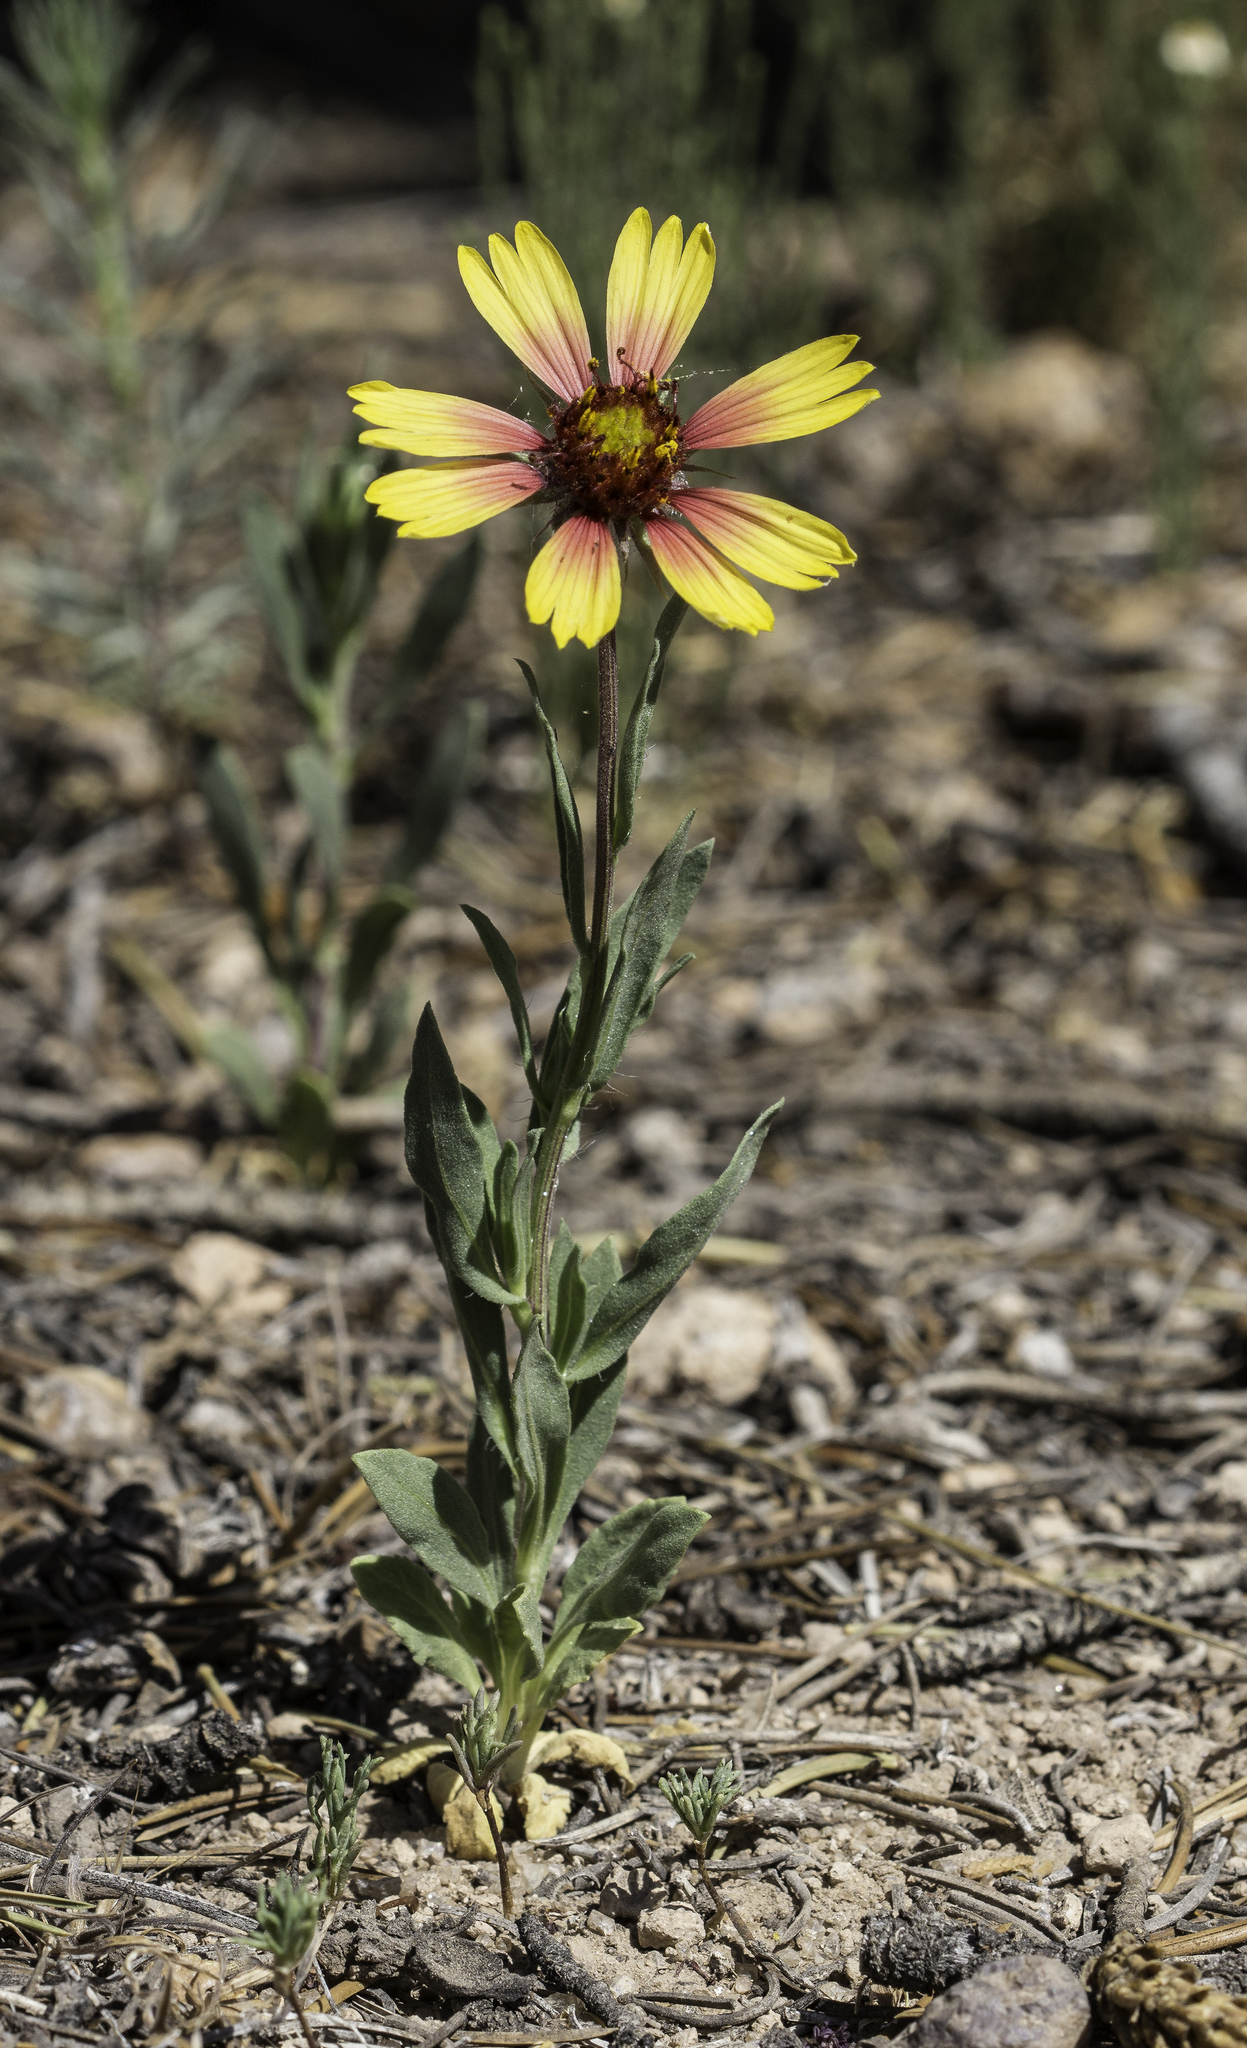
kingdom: Plantae
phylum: Tracheophyta
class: Magnoliopsida
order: Asterales
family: Asteraceae
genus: Gaillardia
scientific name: Gaillardia pulchella
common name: Firewheel
